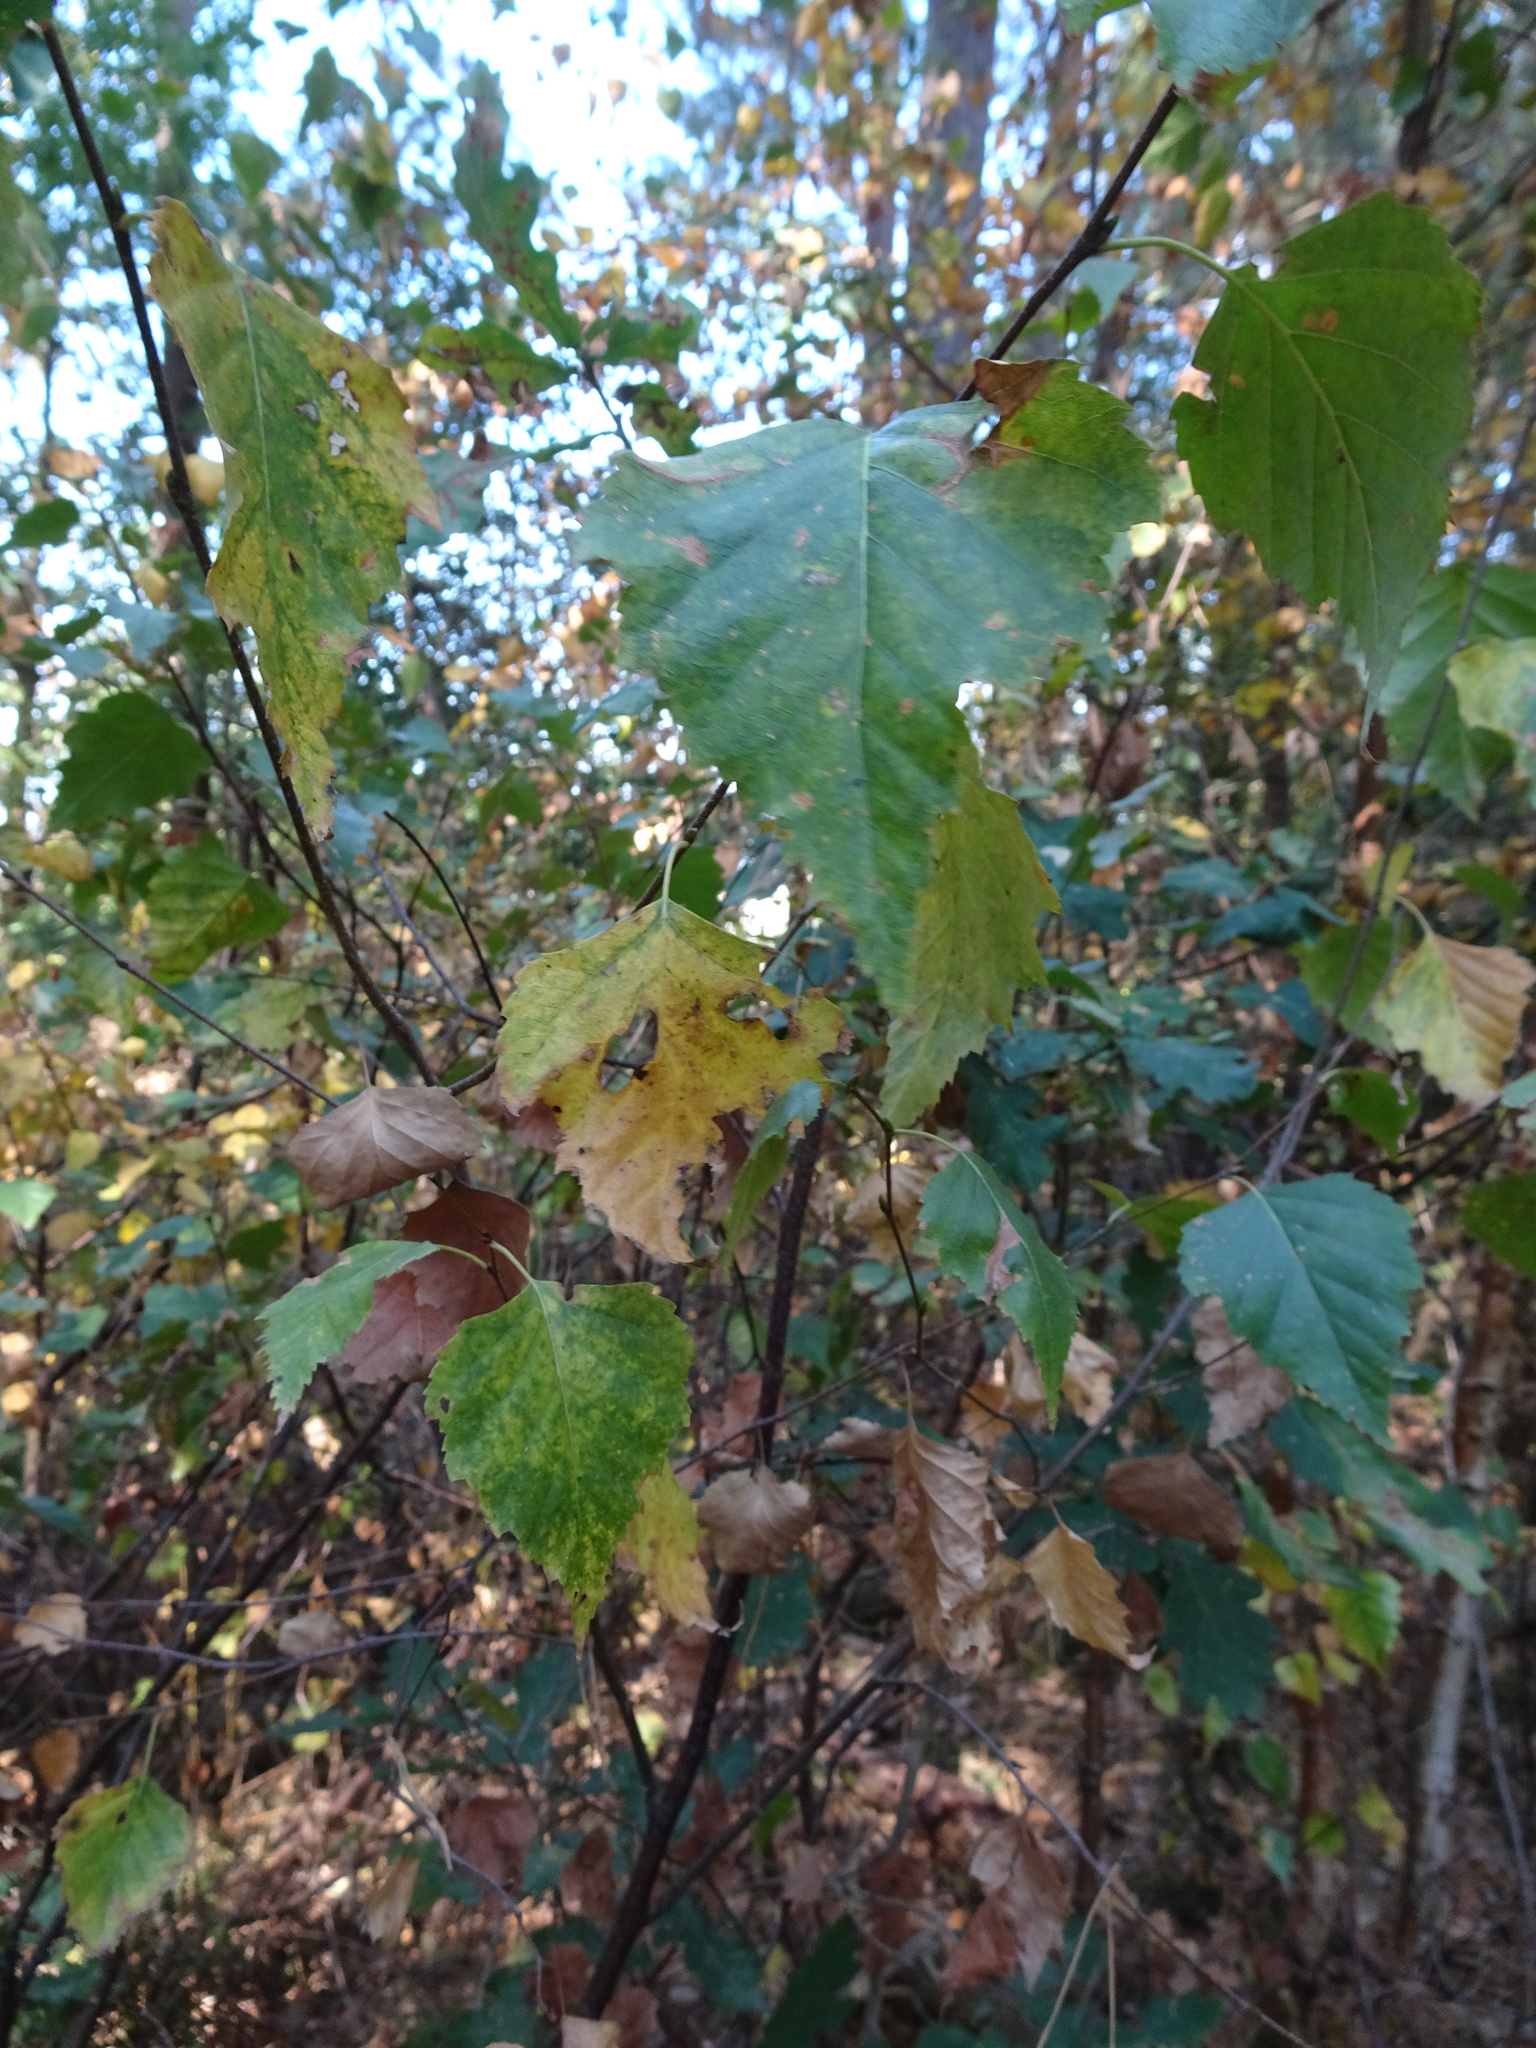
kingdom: Plantae
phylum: Tracheophyta
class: Magnoliopsida
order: Fagales
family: Betulaceae
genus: Betula
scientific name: Betula pendula
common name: Silver birch
